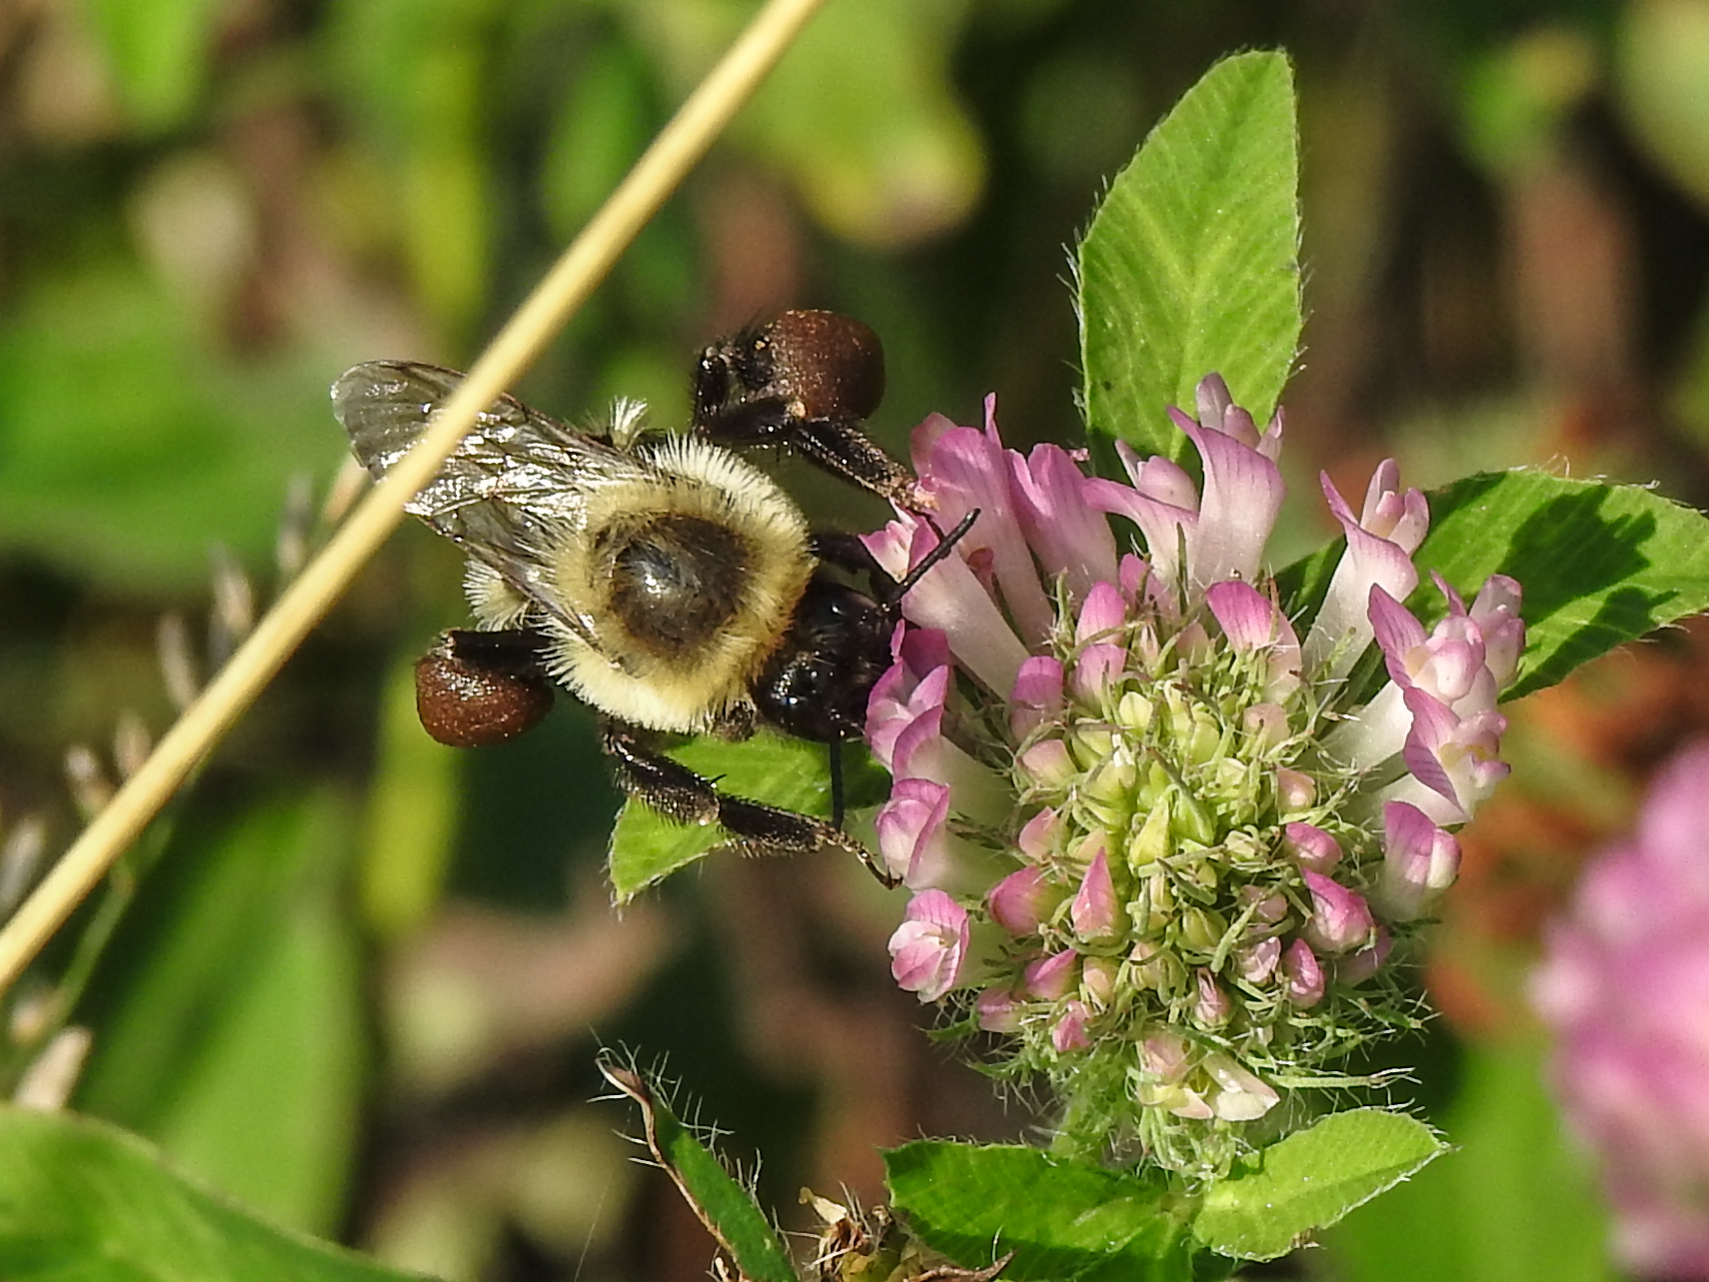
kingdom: Animalia
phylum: Arthropoda
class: Insecta
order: Hymenoptera
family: Apidae
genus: Bombus
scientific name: Bombus impatiens
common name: Common eastern bumble bee
